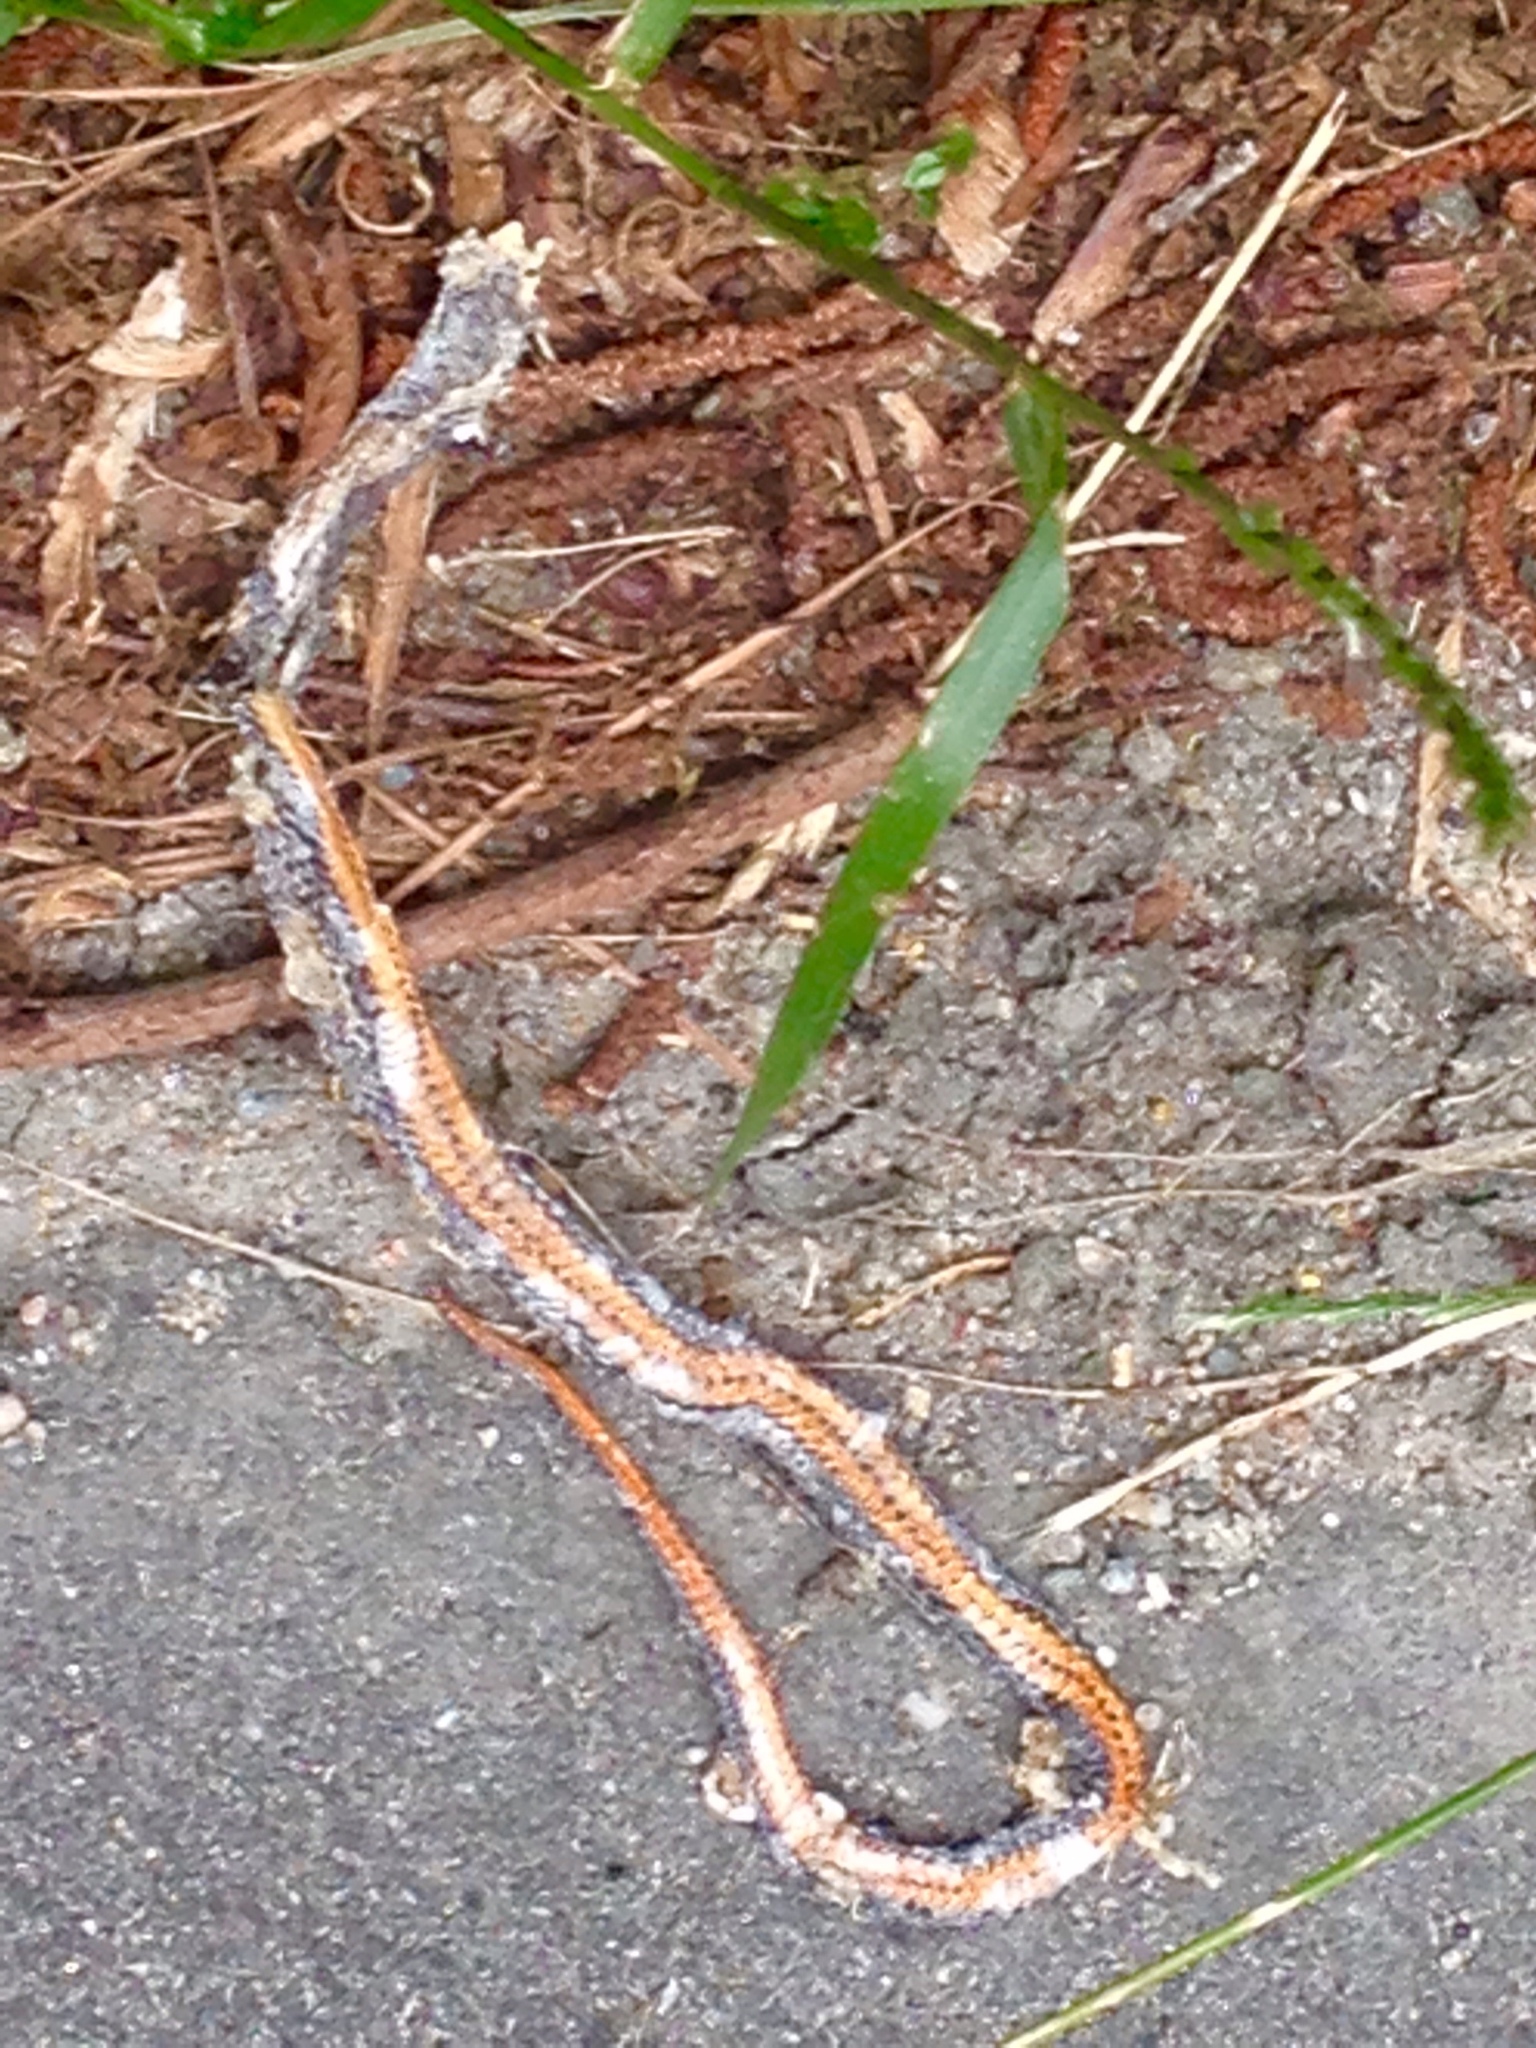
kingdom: Animalia
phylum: Chordata
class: Squamata
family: Colubridae
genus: Diadophis
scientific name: Diadophis punctatus
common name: Ringneck snake
